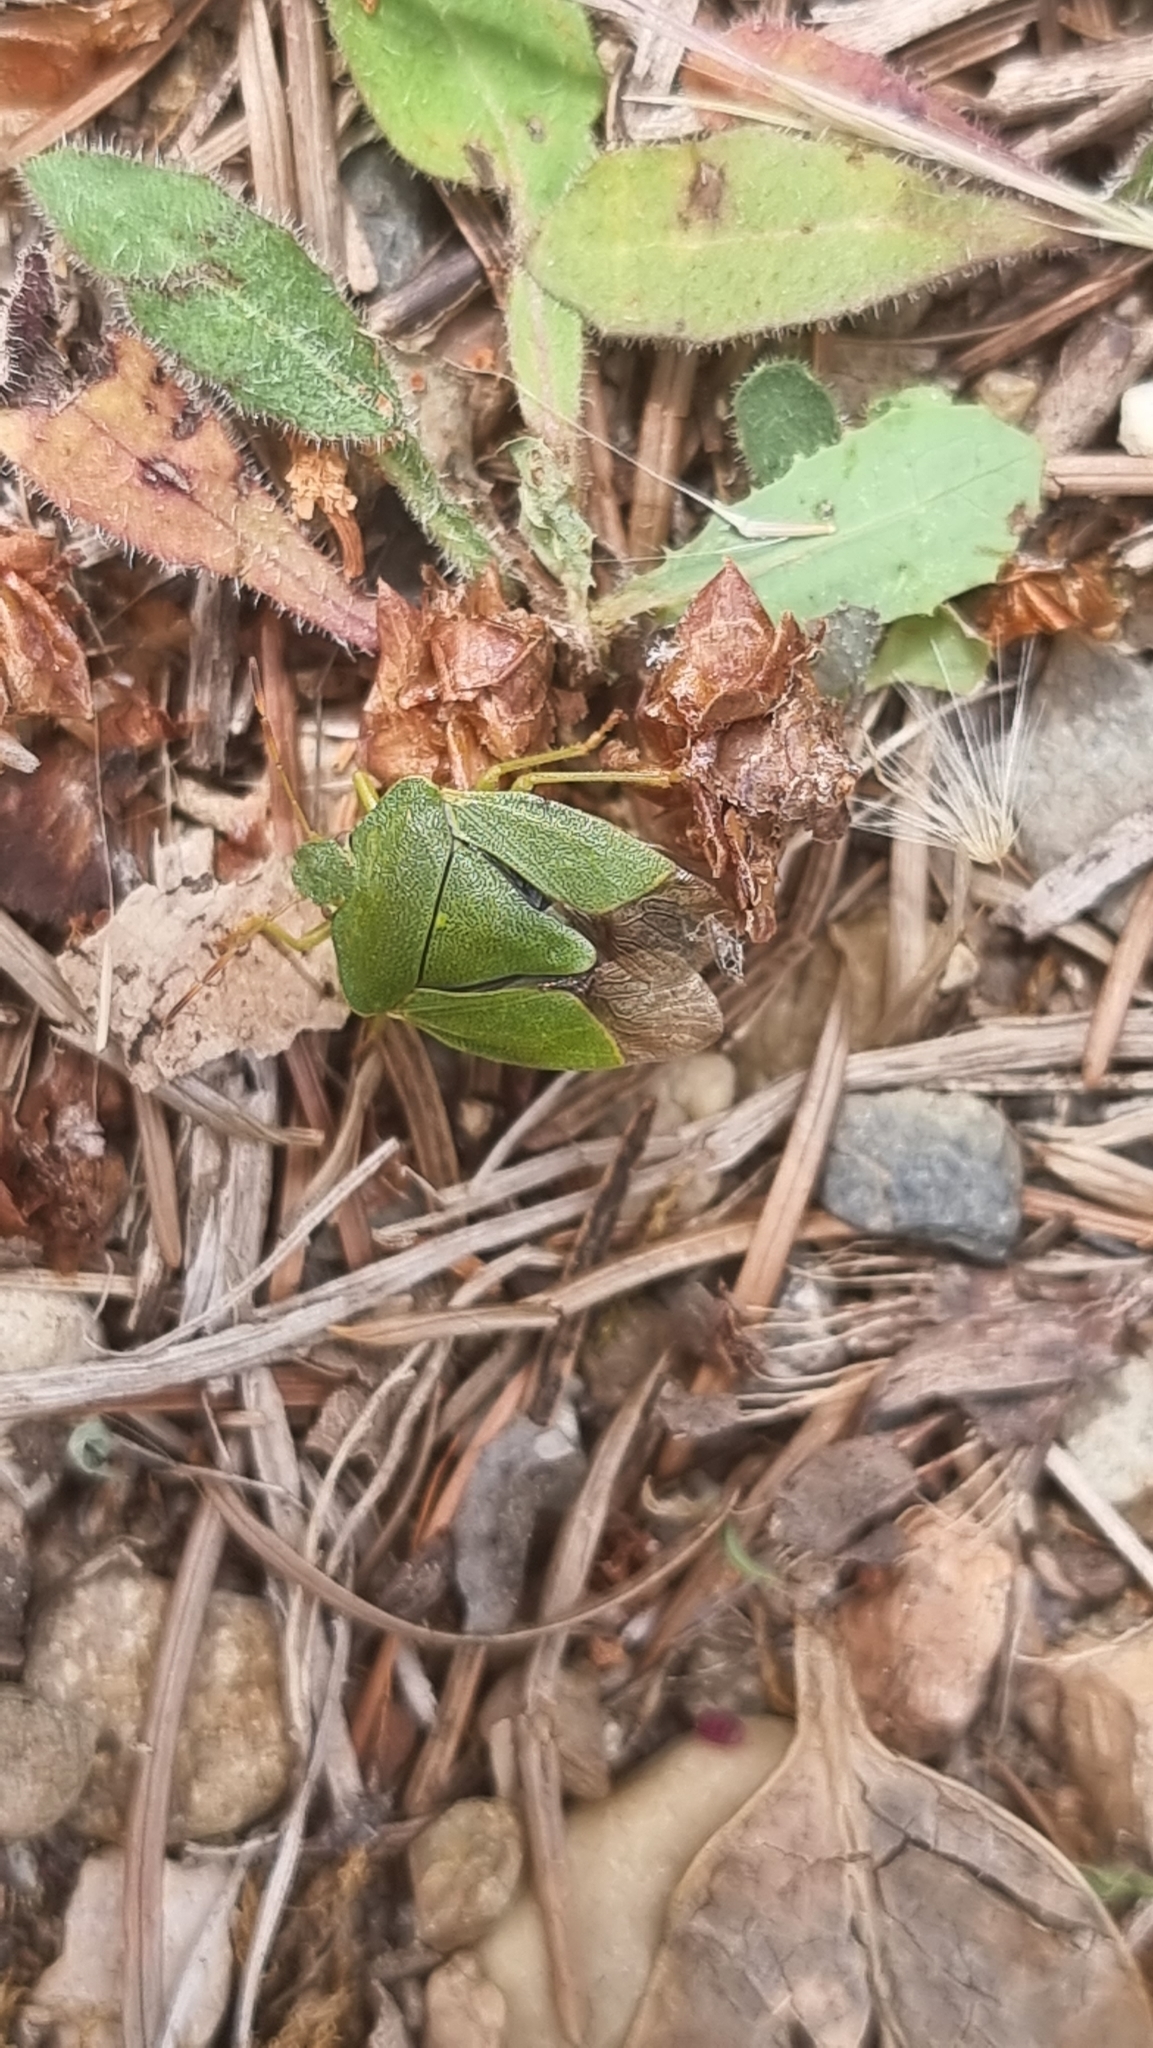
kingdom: Animalia
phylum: Arthropoda
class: Insecta
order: Hemiptera
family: Pentatomidae
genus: Palomena
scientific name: Palomena prasina
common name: Green shieldbug
